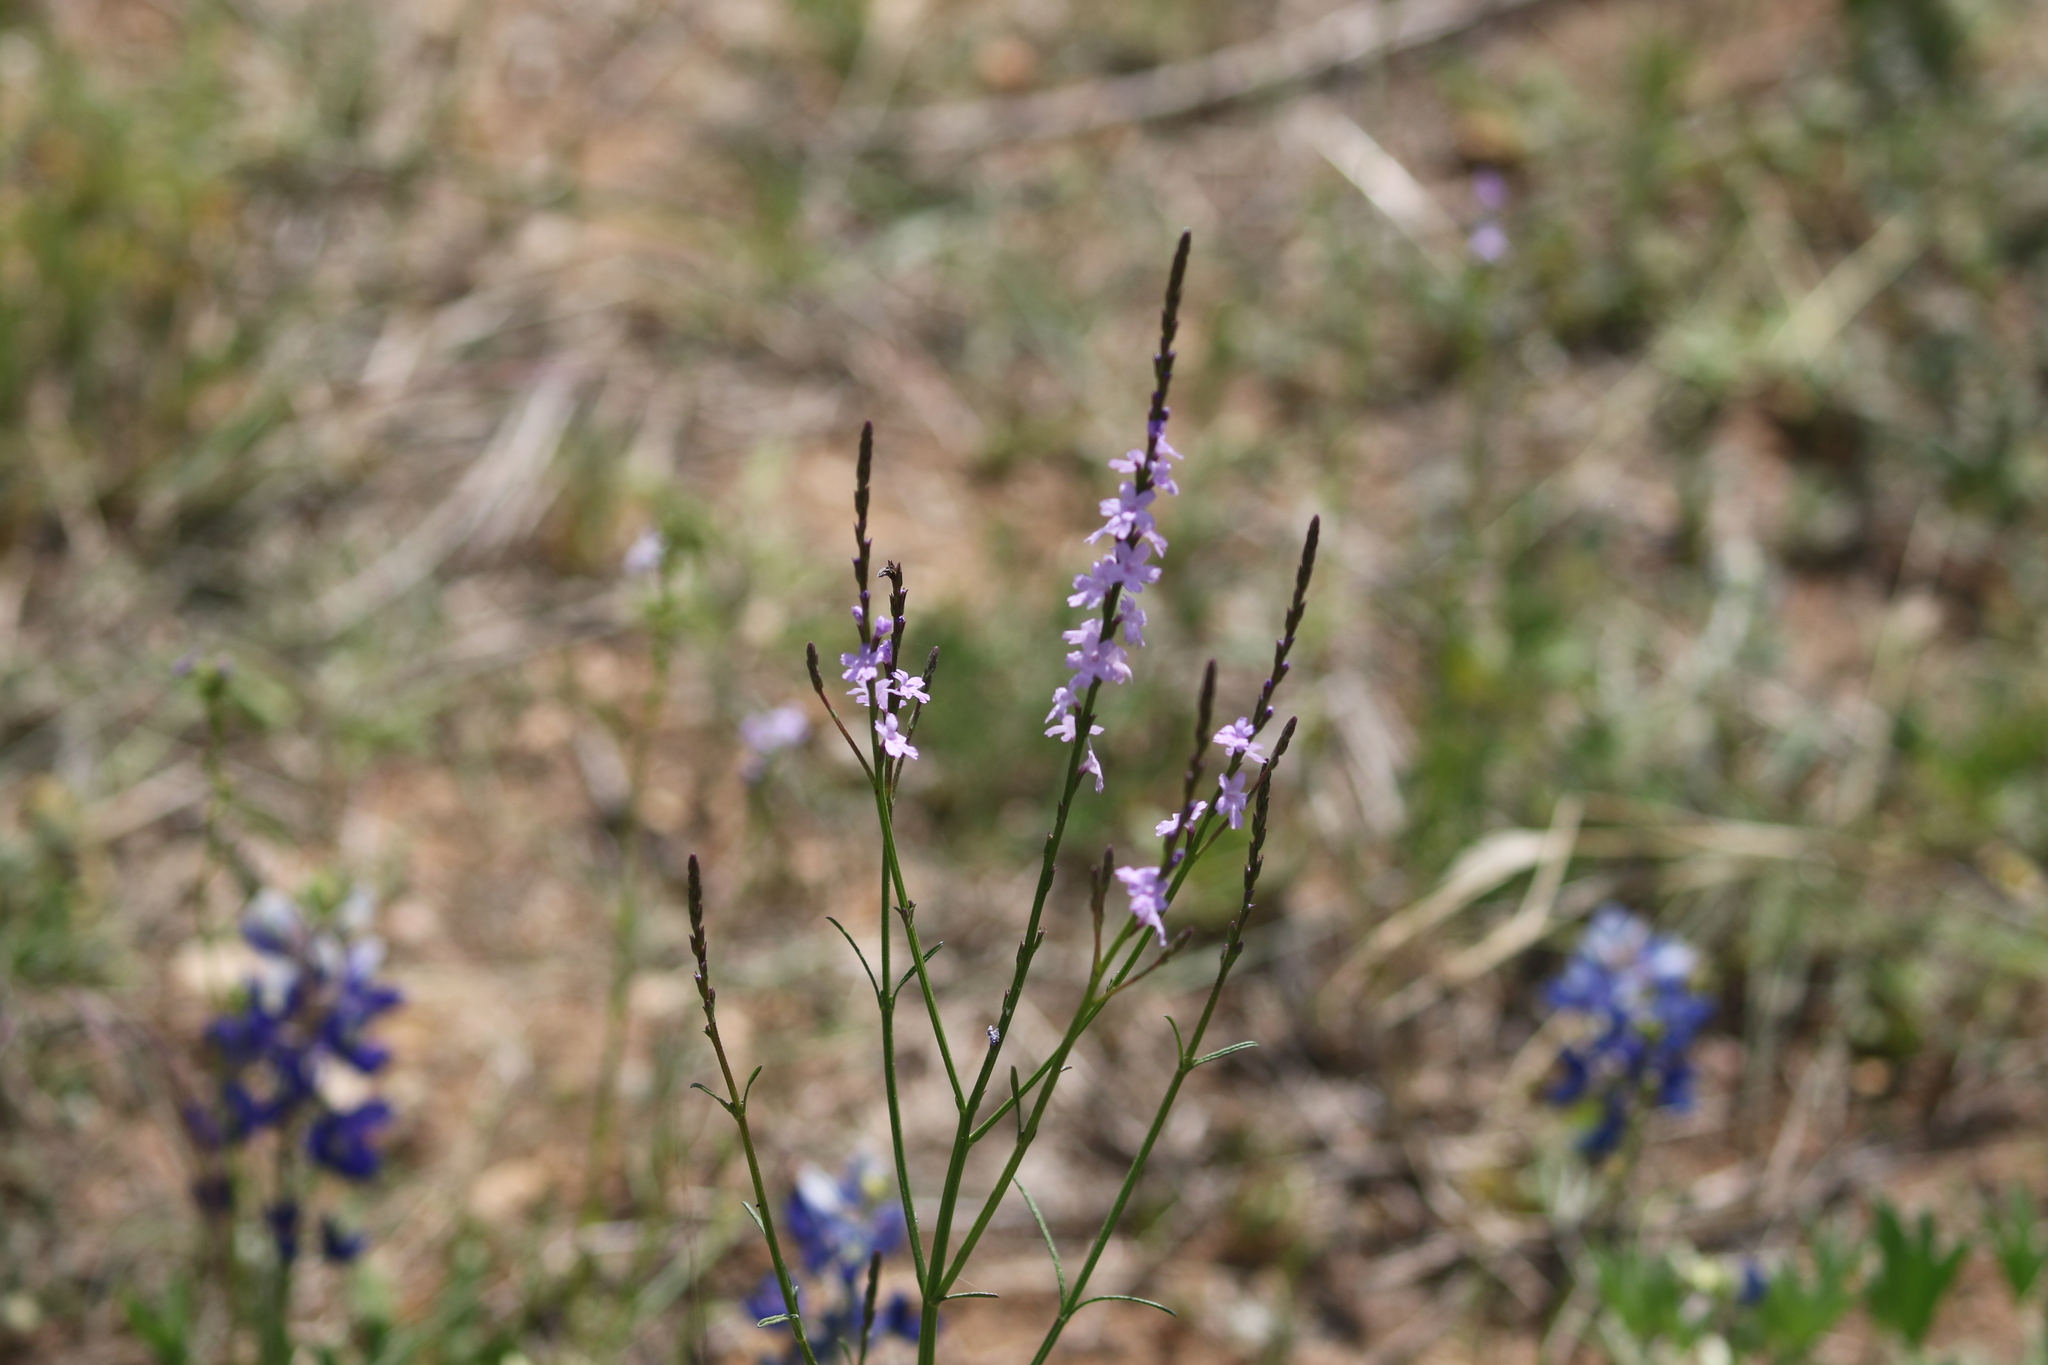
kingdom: Plantae
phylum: Tracheophyta
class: Magnoliopsida
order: Lamiales
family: Verbenaceae
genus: Verbena
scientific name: Verbena halei
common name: Texas vervain
